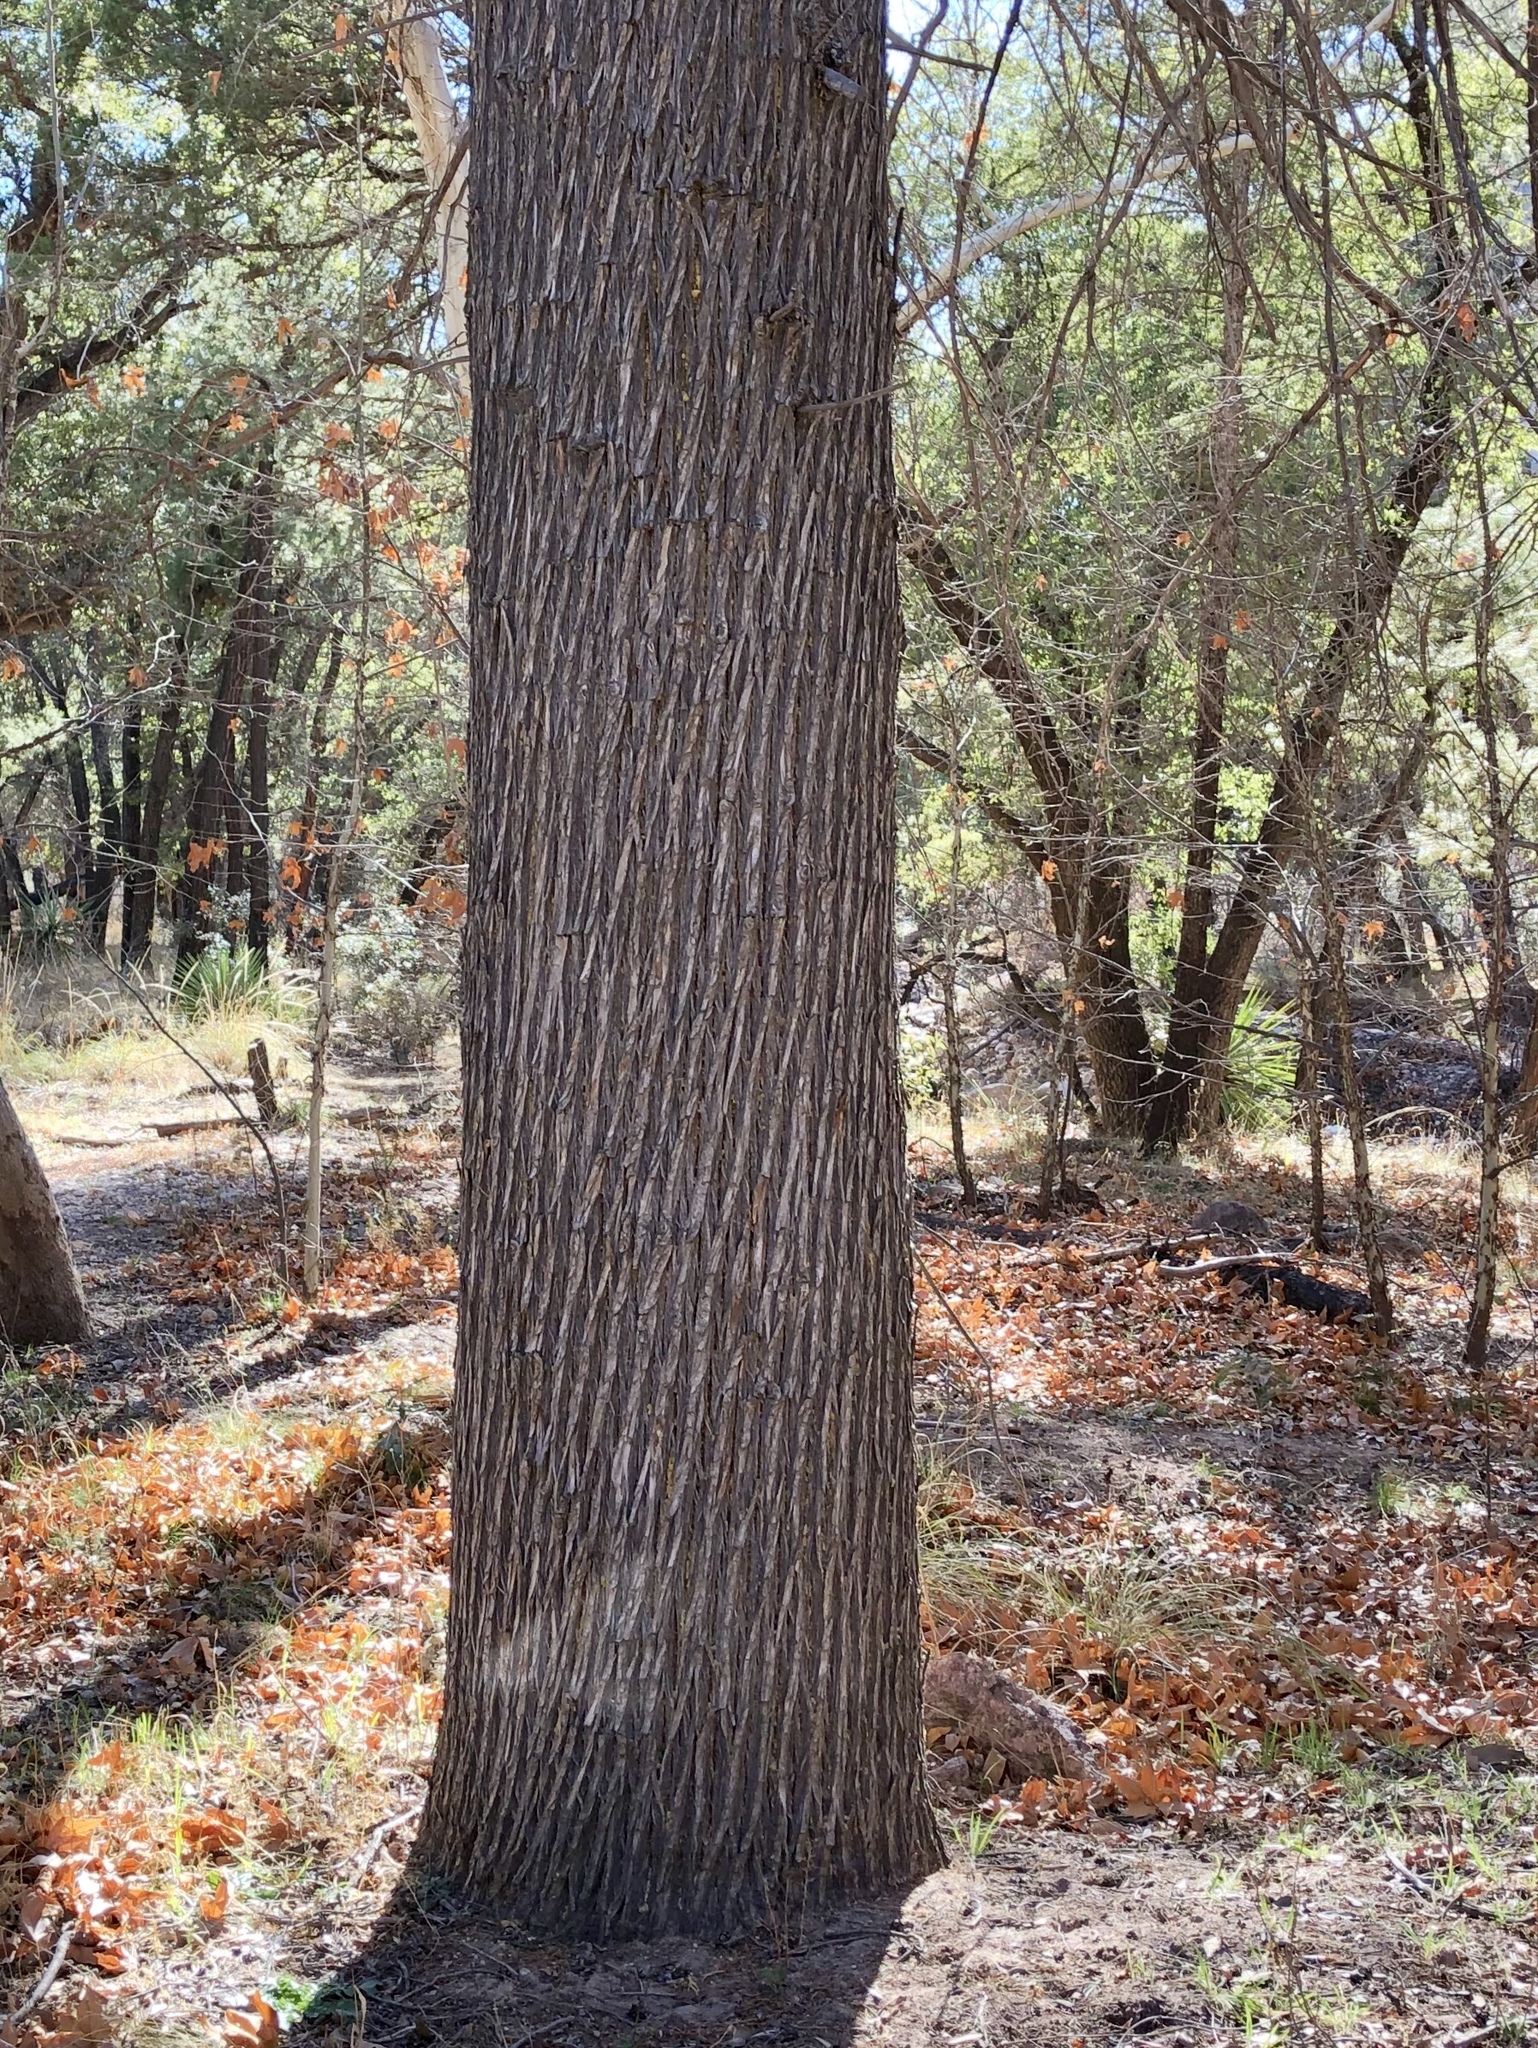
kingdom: Plantae
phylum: Tracheophyta
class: Pinopsida
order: Pinales
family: Cupressaceae
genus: Cupressus
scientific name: Cupressus arizonica
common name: Arizona cypress
